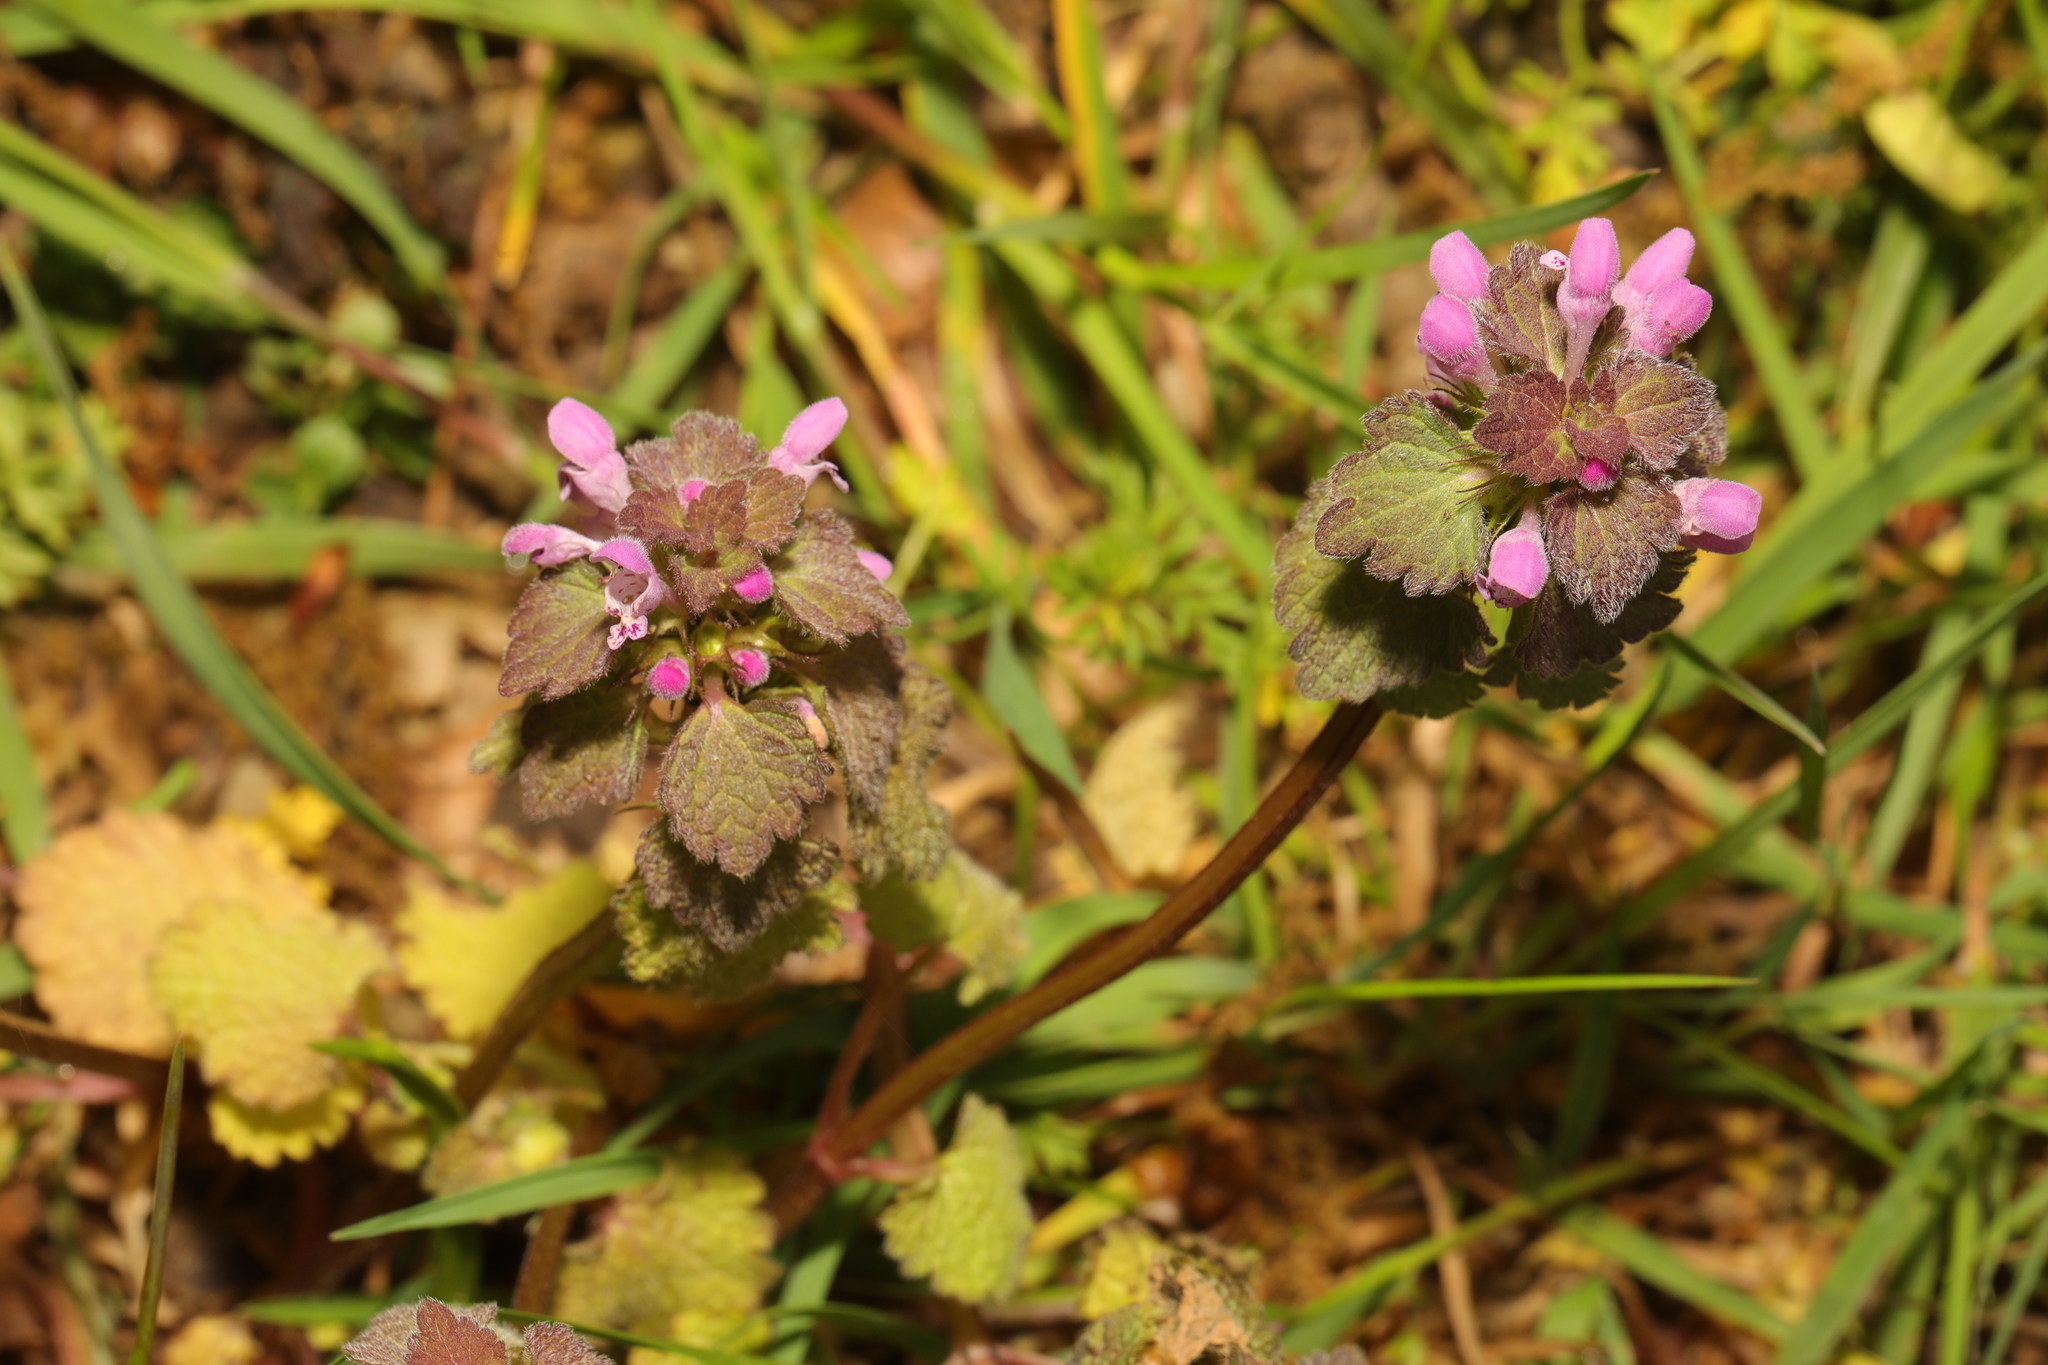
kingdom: Plantae
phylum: Tracheophyta
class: Magnoliopsida
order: Lamiales
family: Lamiaceae
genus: Lamium
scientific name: Lamium purpureum
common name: Red dead-nettle
